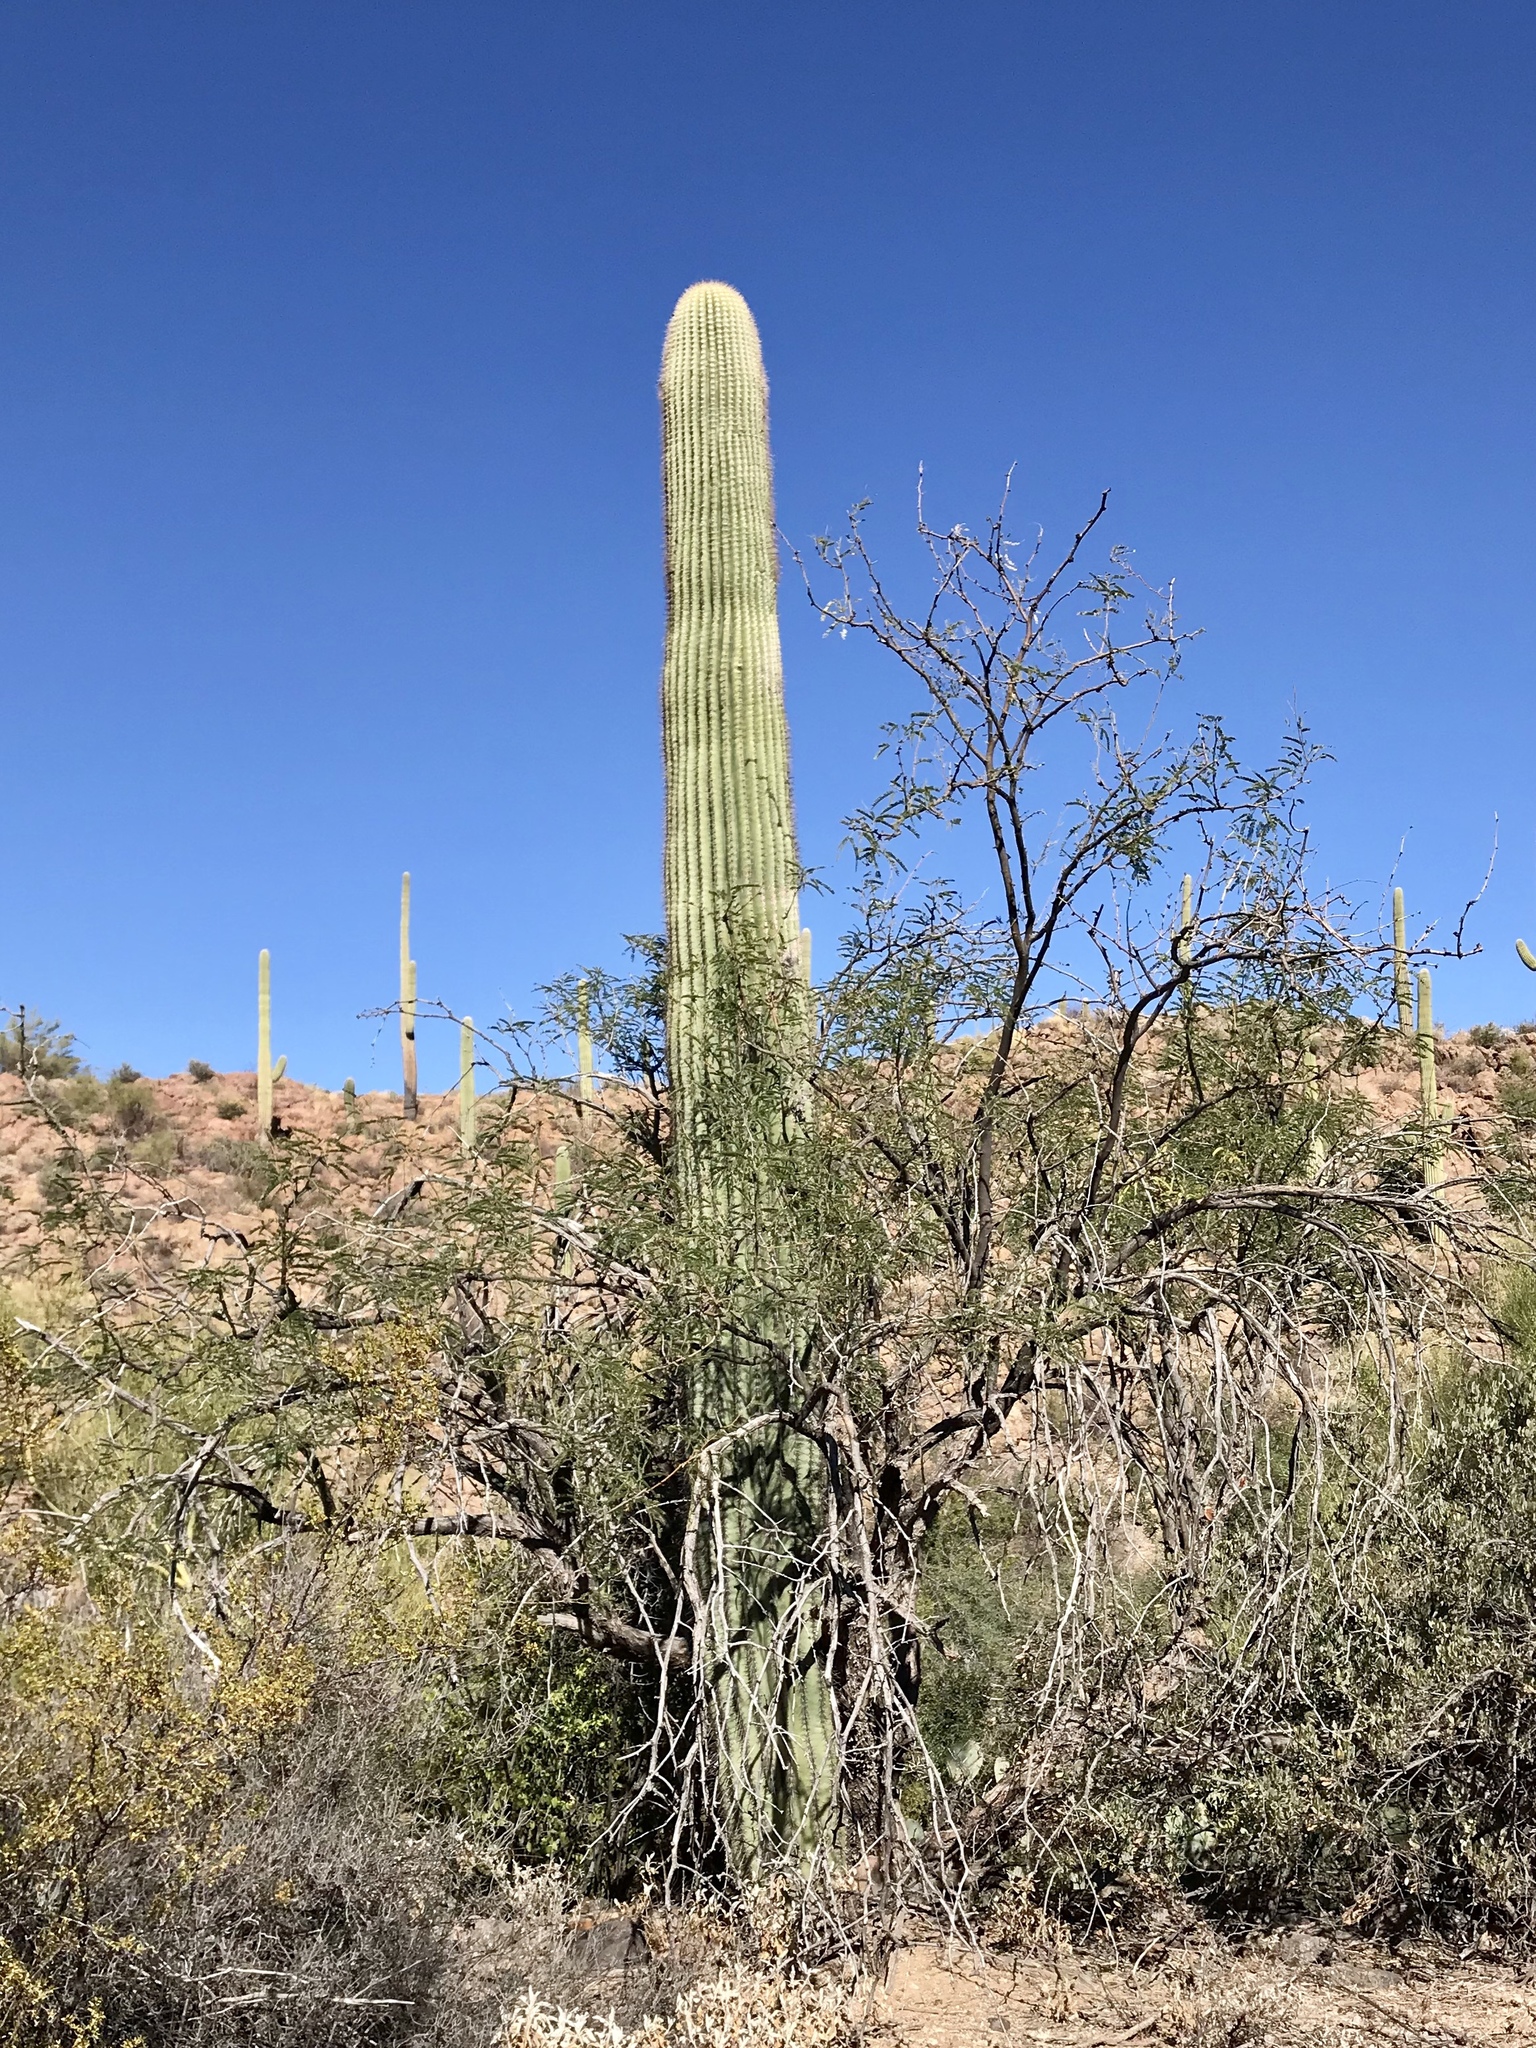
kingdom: Plantae
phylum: Tracheophyta
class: Magnoliopsida
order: Caryophyllales
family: Cactaceae
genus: Carnegiea
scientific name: Carnegiea gigantea
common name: Saguaro
